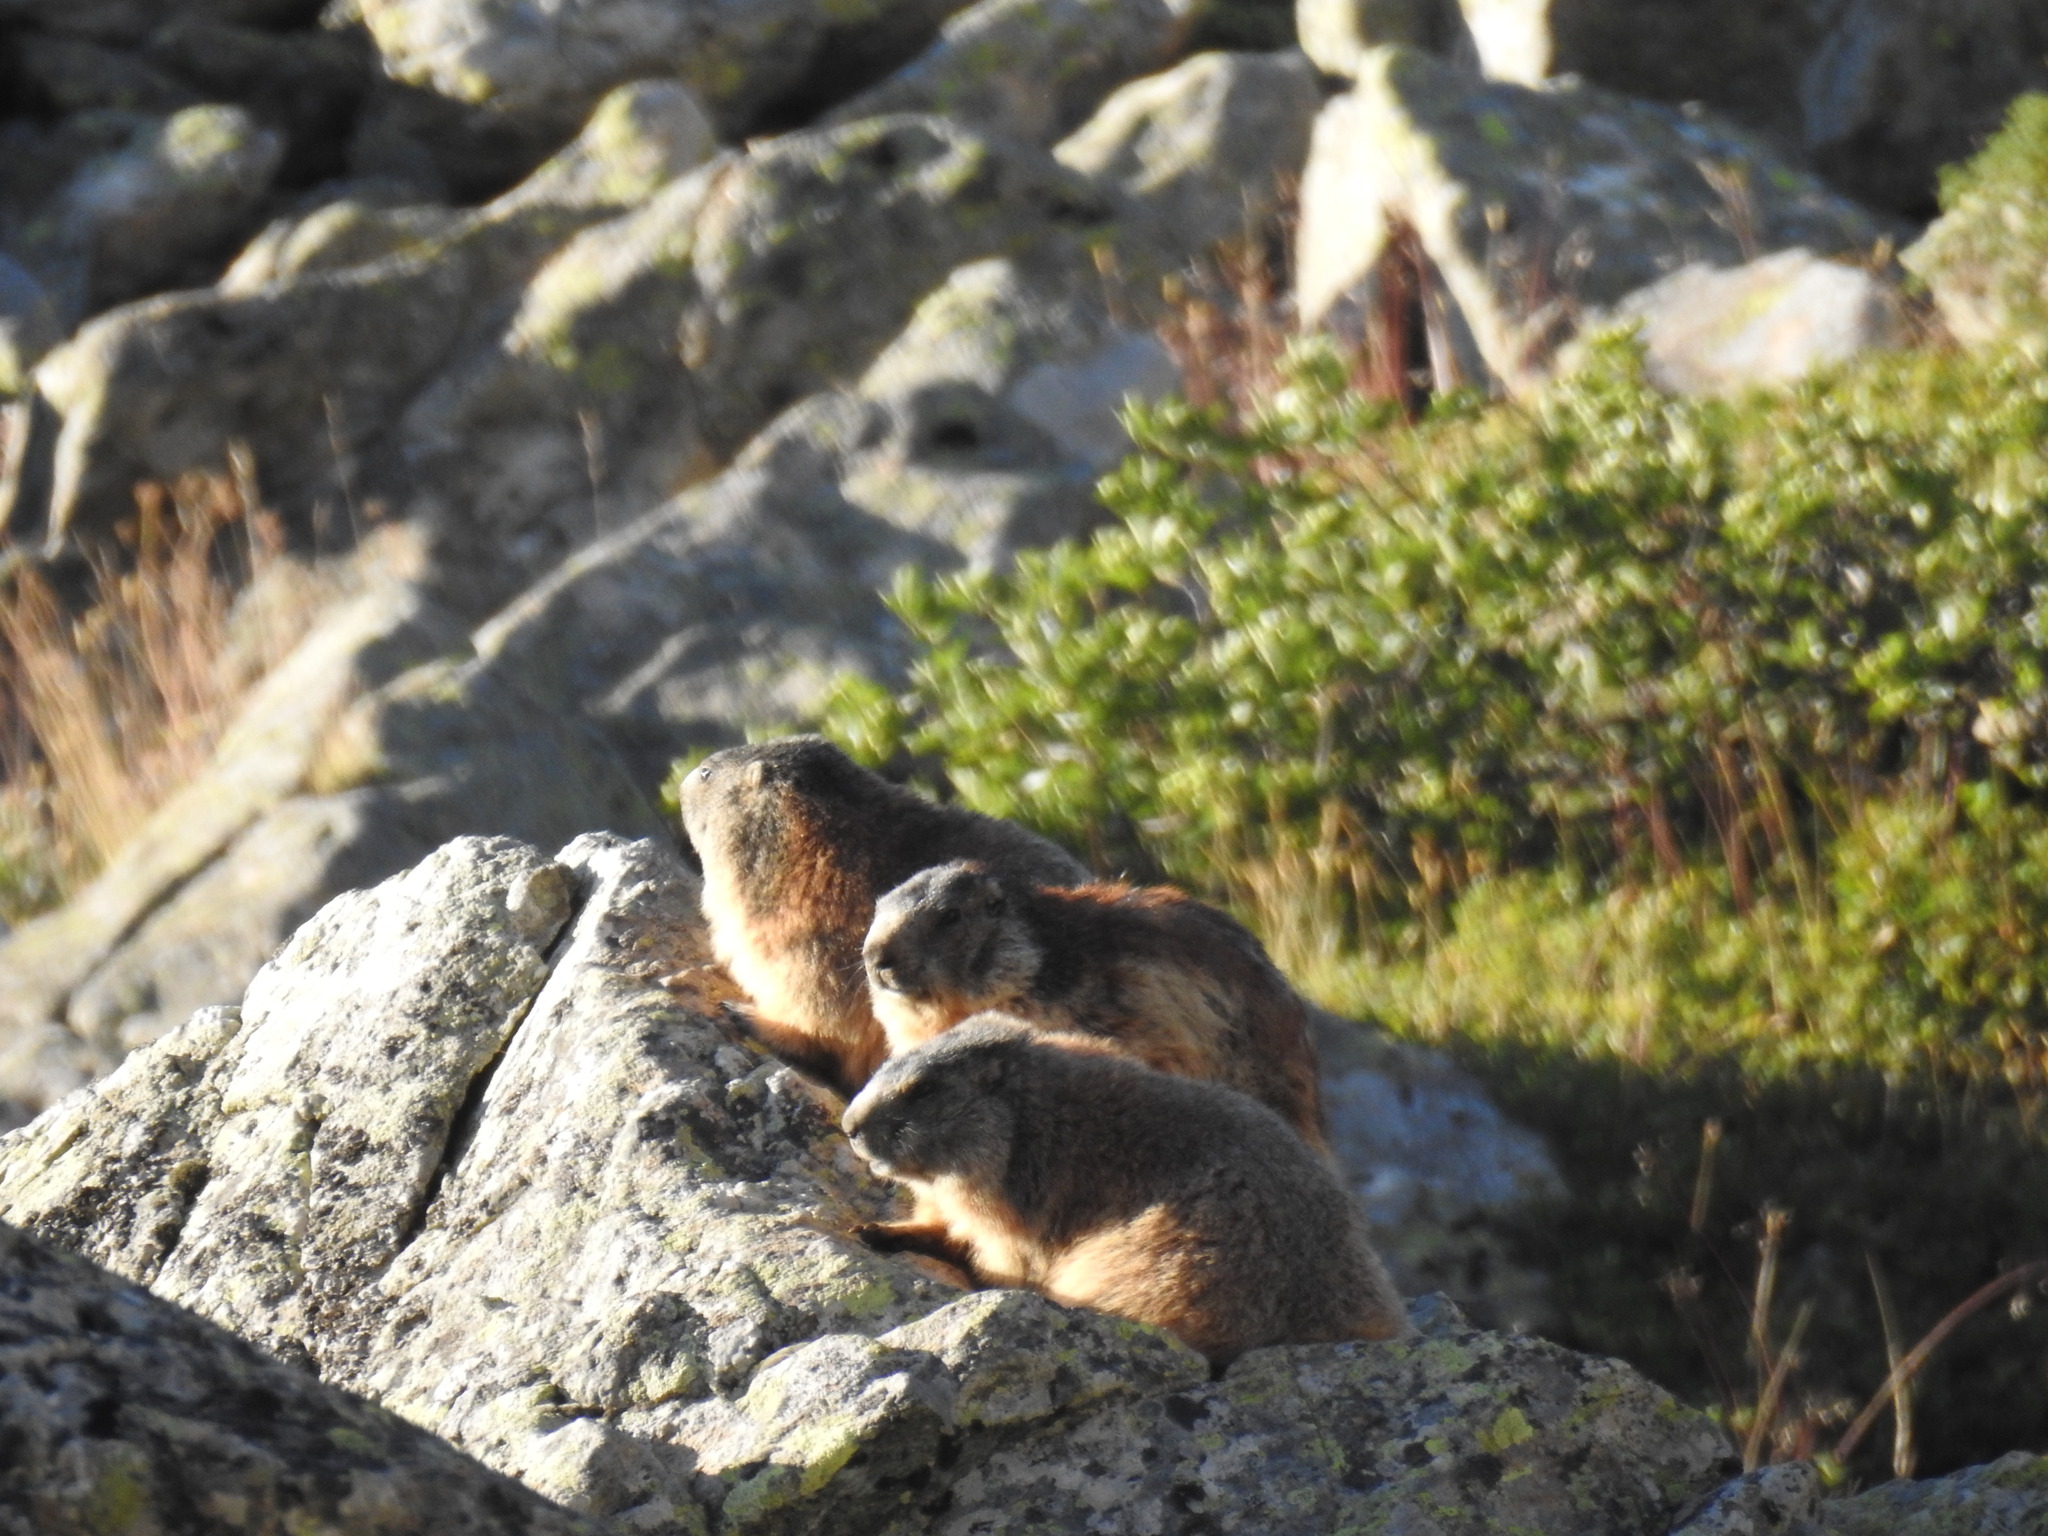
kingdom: Animalia
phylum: Chordata
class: Mammalia
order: Rodentia
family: Sciuridae
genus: Marmota
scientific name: Marmota marmota
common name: Alpine marmot
